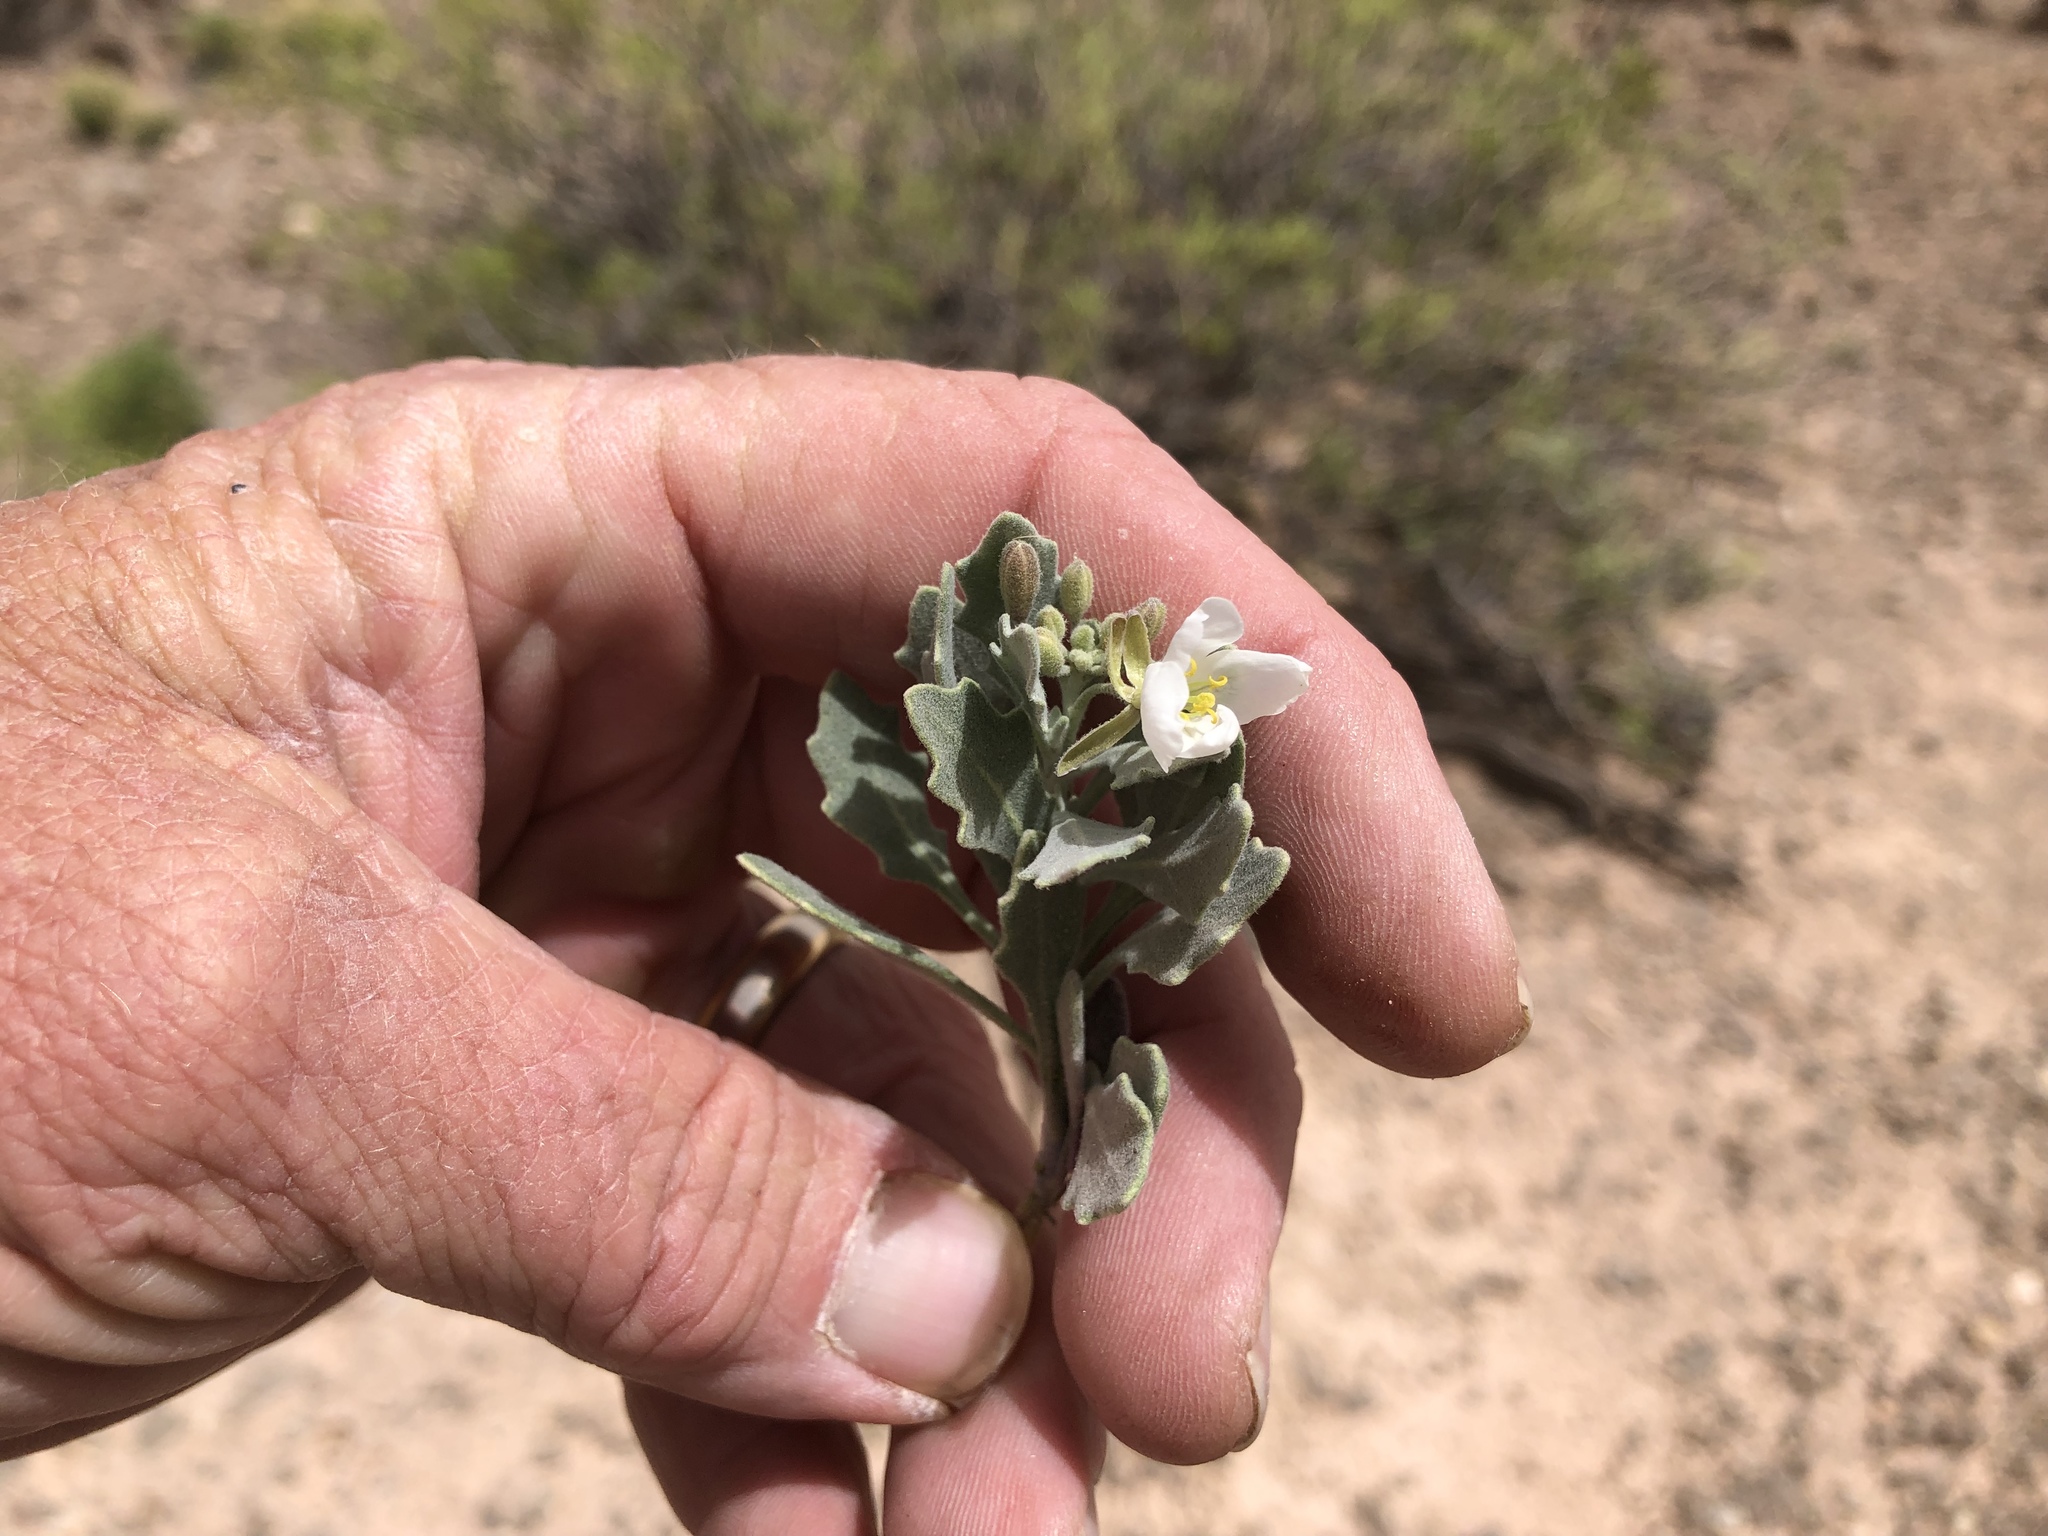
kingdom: Plantae
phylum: Tracheophyta
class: Magnoliopsida
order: Brassicales
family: Brassicaceae
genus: Nerisyrenia
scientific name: Nerisyrenia camporum
